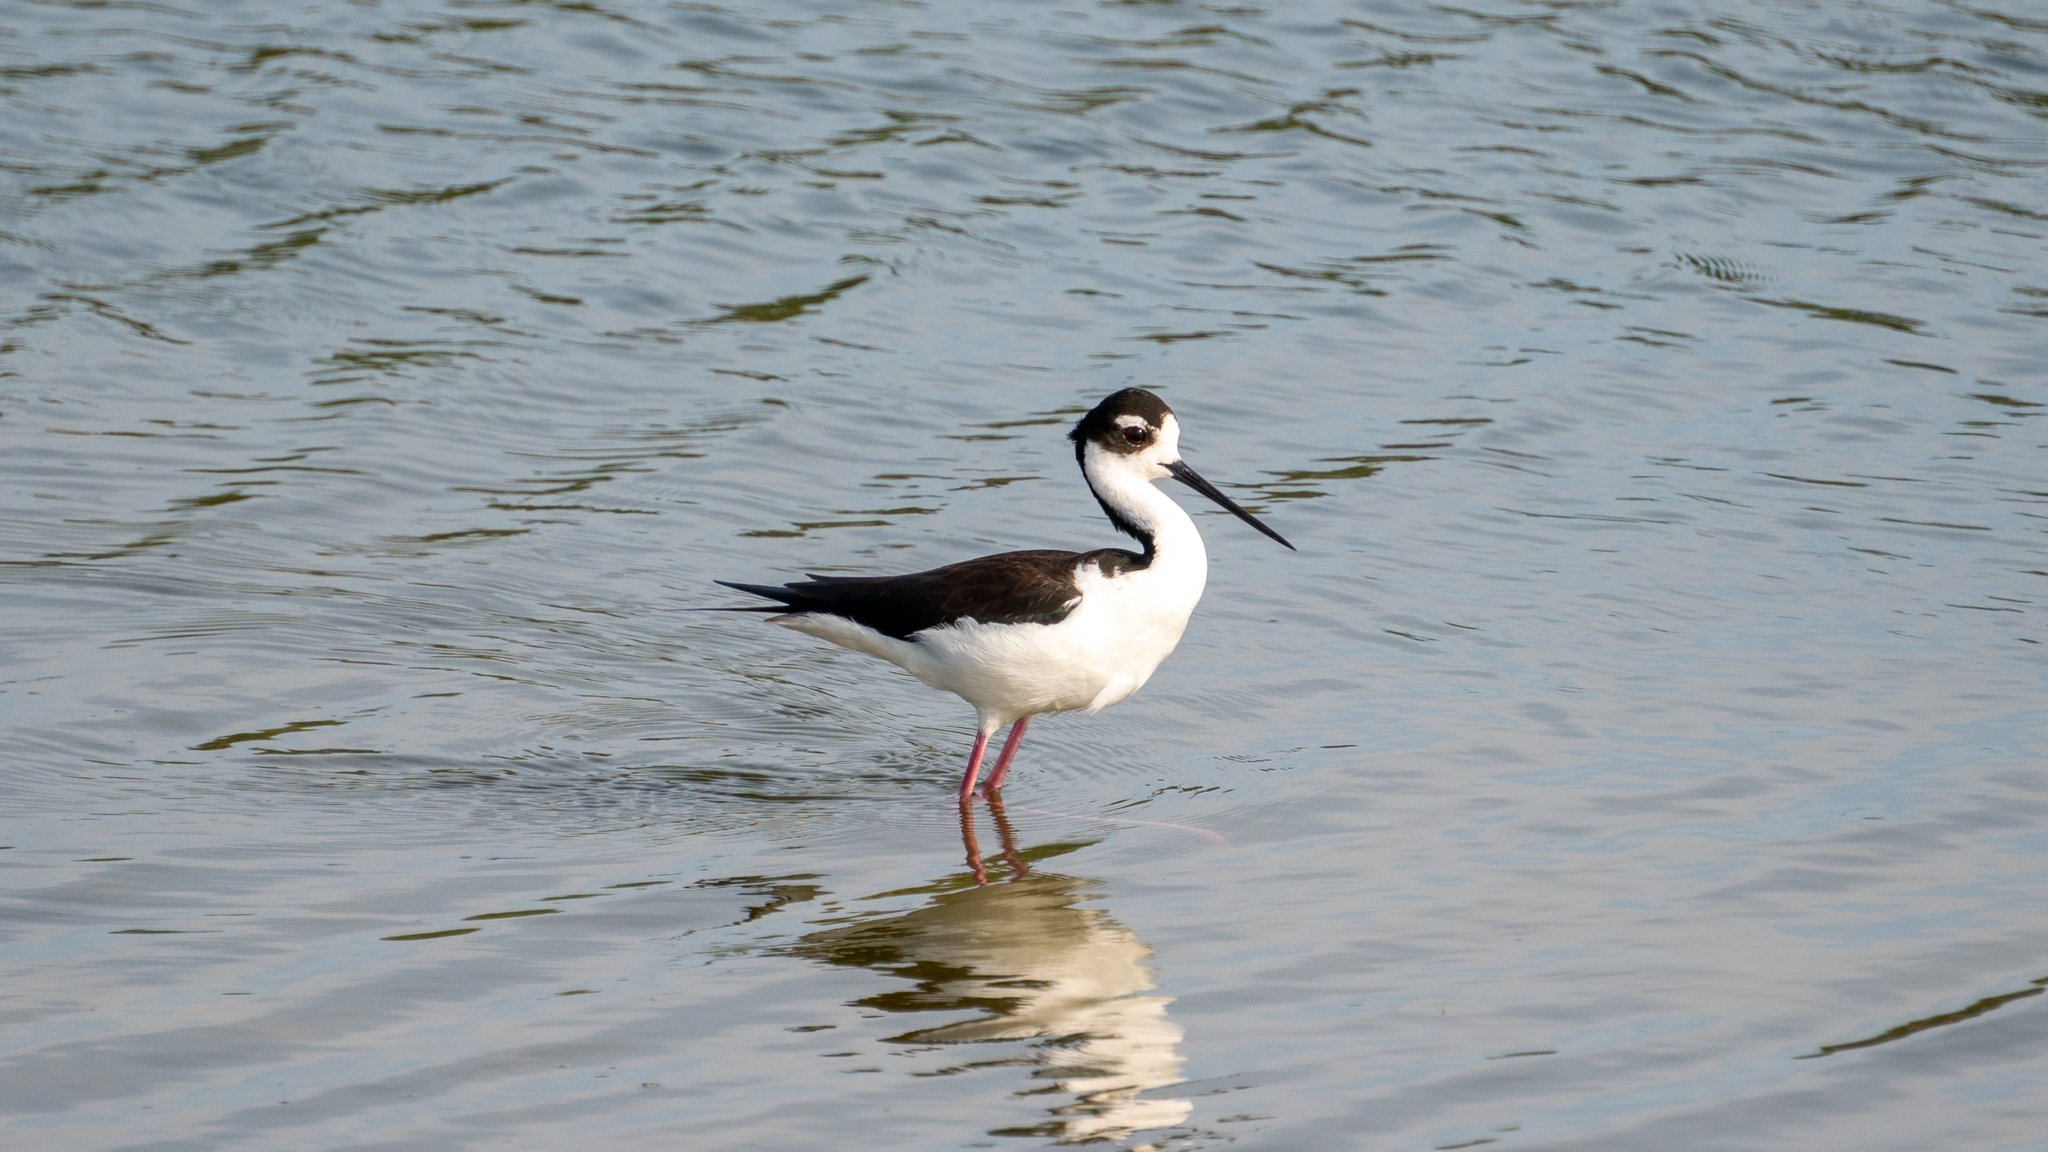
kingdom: Animalia
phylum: Chordata
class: Aves
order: Charadriiformes
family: Recurvirostridae
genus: Himantopus
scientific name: Himantopus mexicanus
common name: Black-necked stilt
